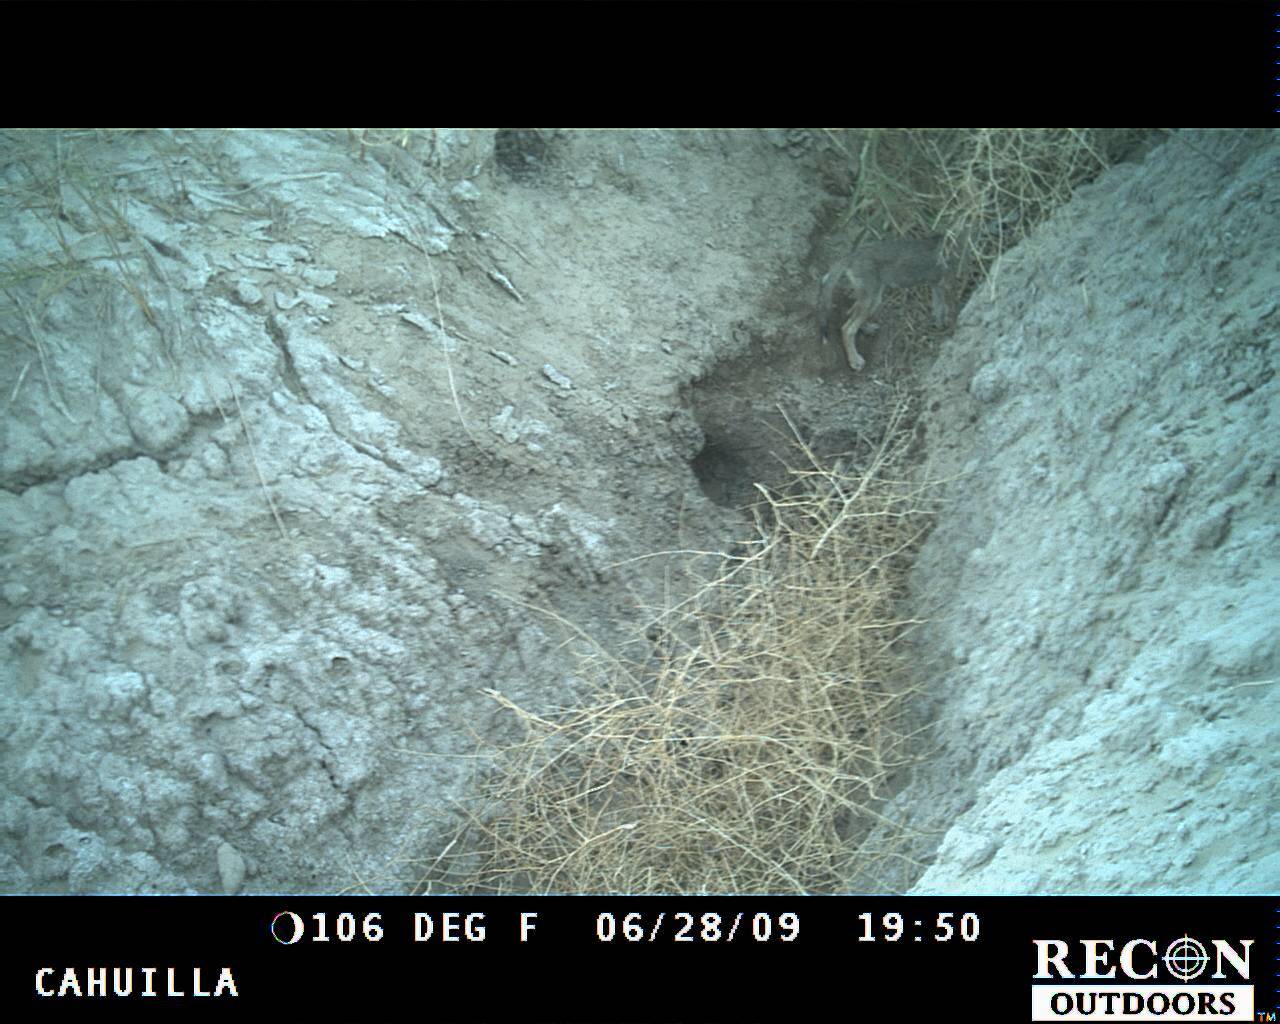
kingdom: Animalia
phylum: Chordata
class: Mammalia
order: Carnivora
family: Canidae
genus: Canis
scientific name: Canis latrans
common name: Coyote
